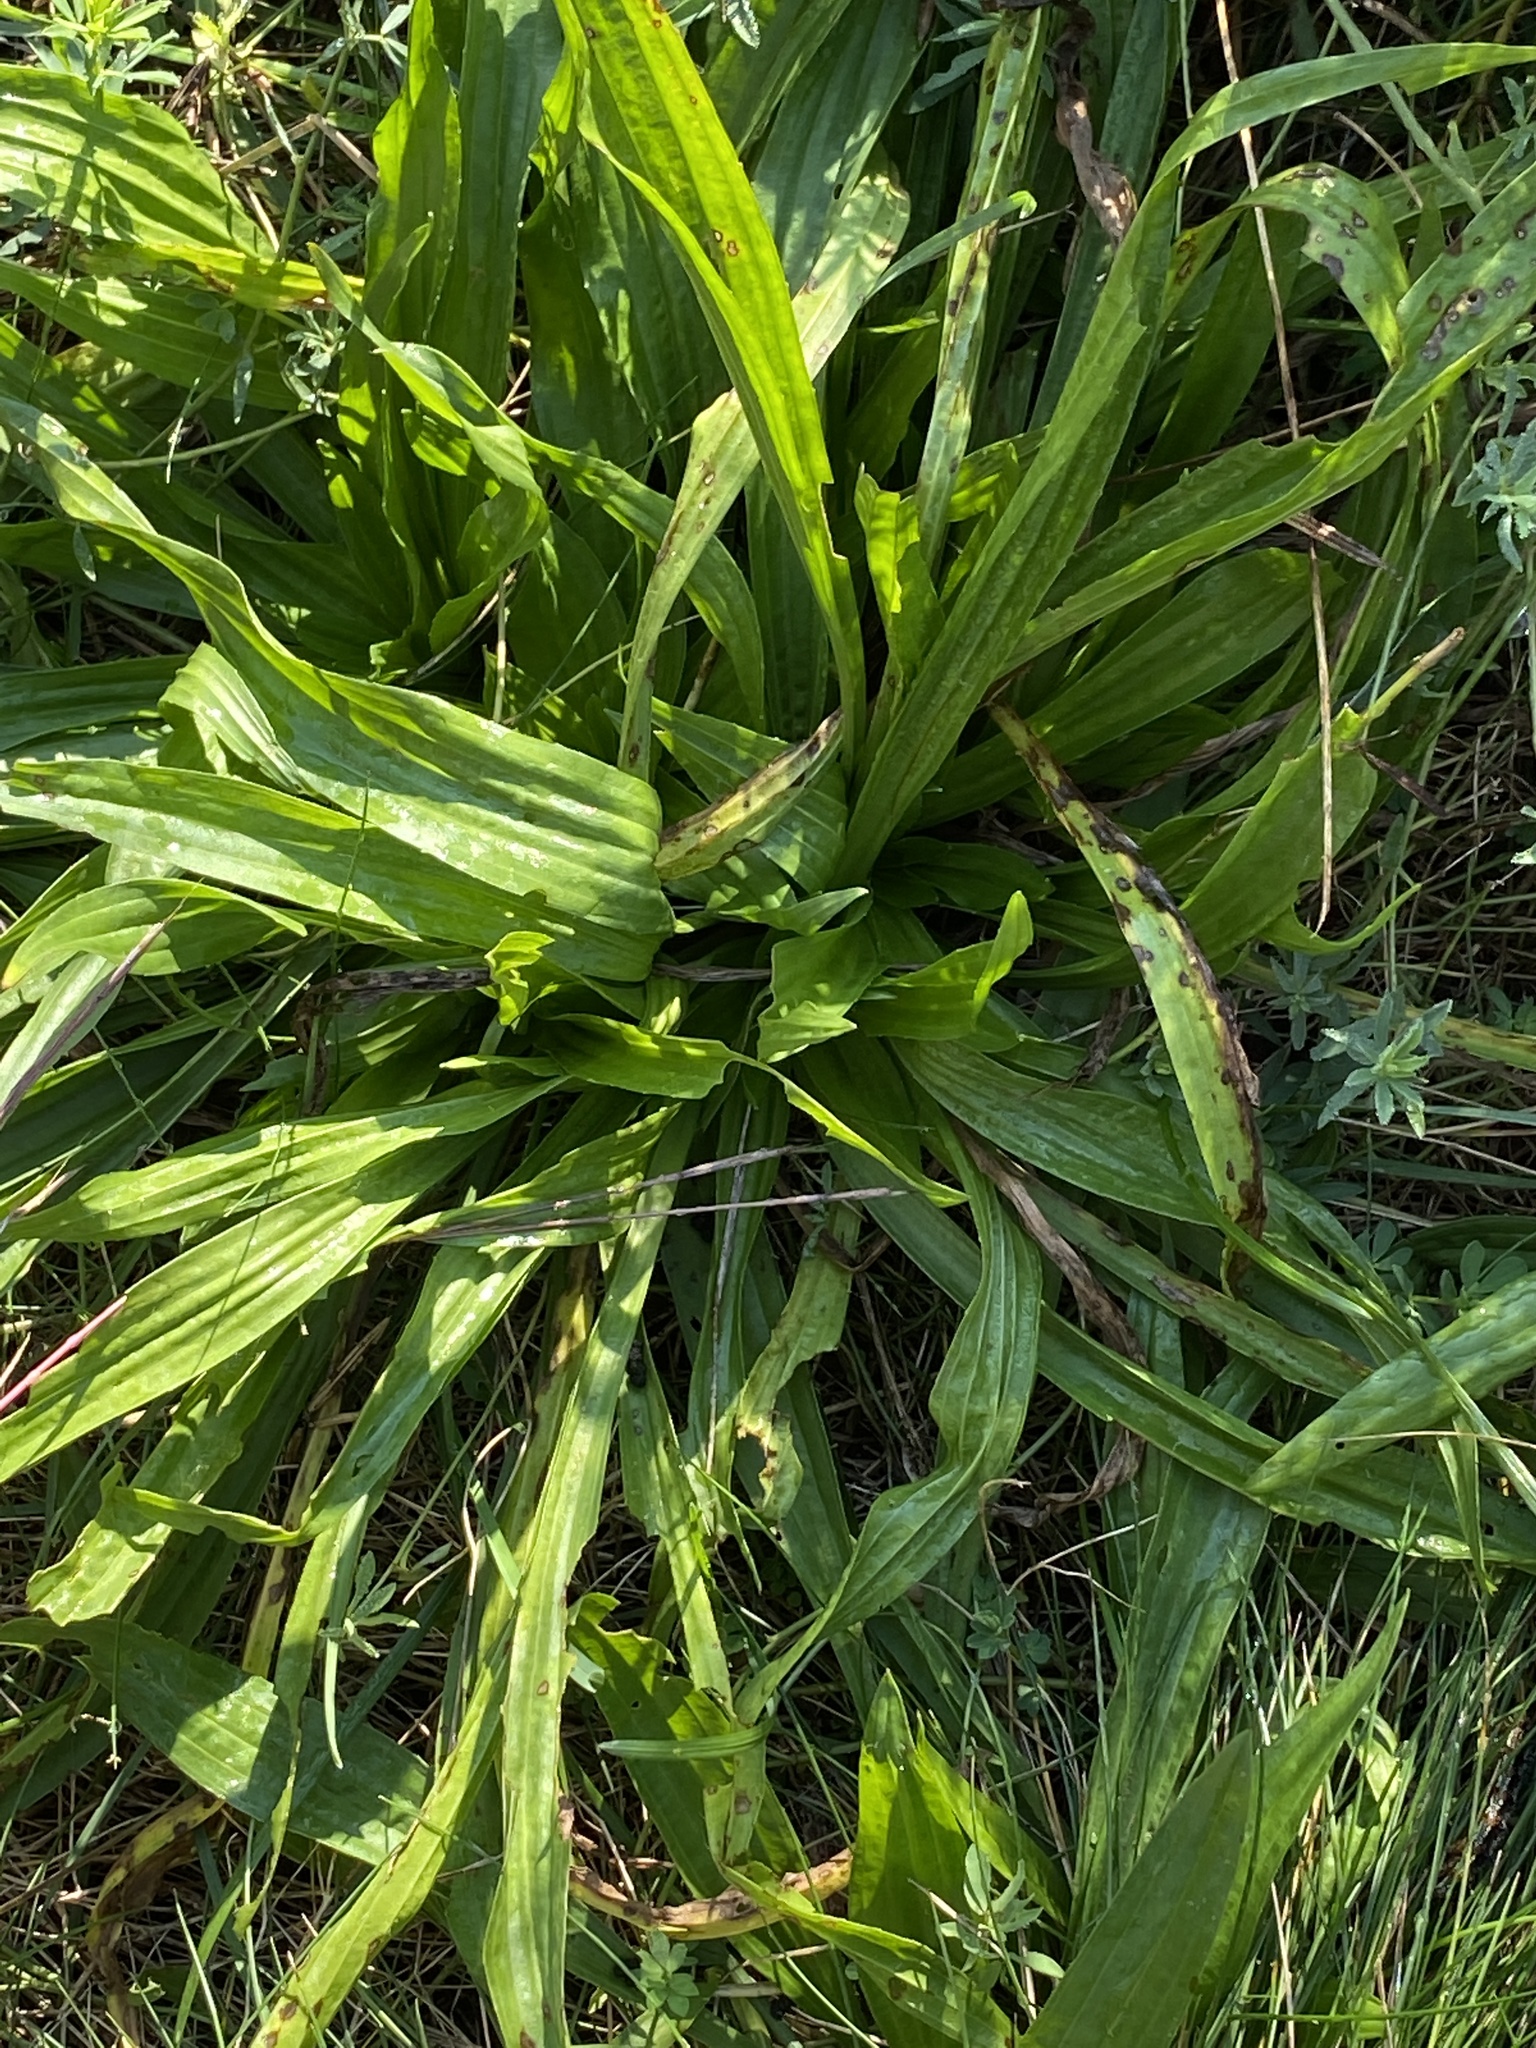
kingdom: Plantae
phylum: Tracheophyta
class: Magnoliopsida
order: Lamiales
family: Plantaginaceae
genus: Plantago
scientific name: Plantago lanceolata
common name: Ribwort plantain
